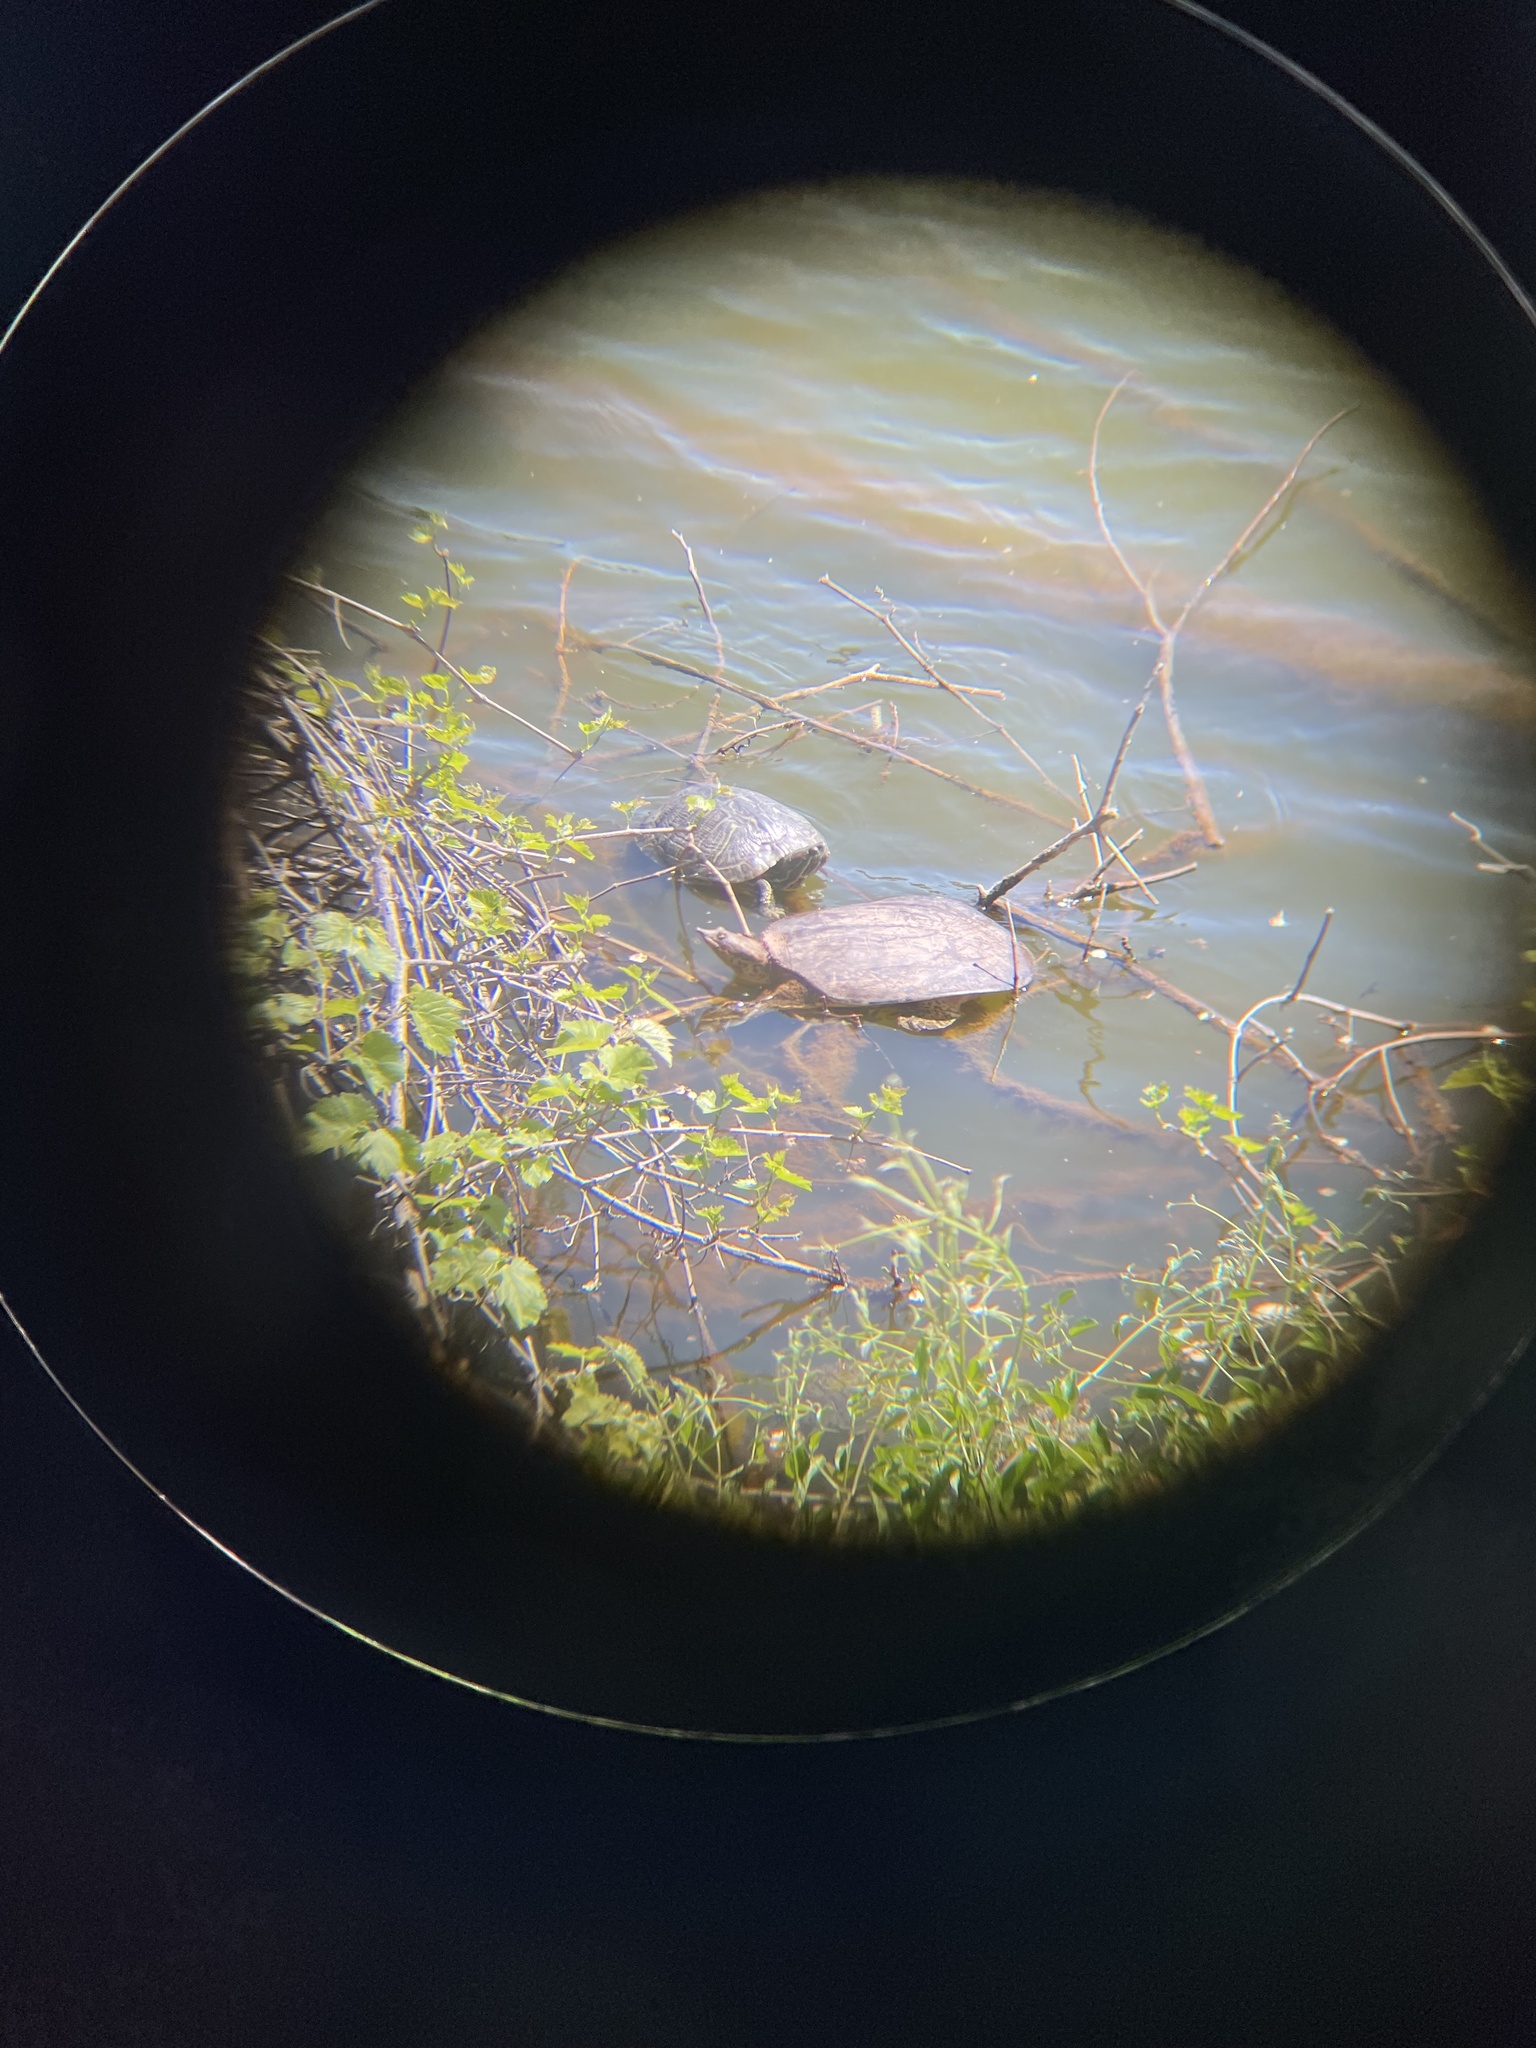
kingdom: Animalia
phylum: Chordata
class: Testudines
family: Trionychidae
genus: Apalone
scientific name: Apalone spinifera
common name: Spiny softshell turtle
